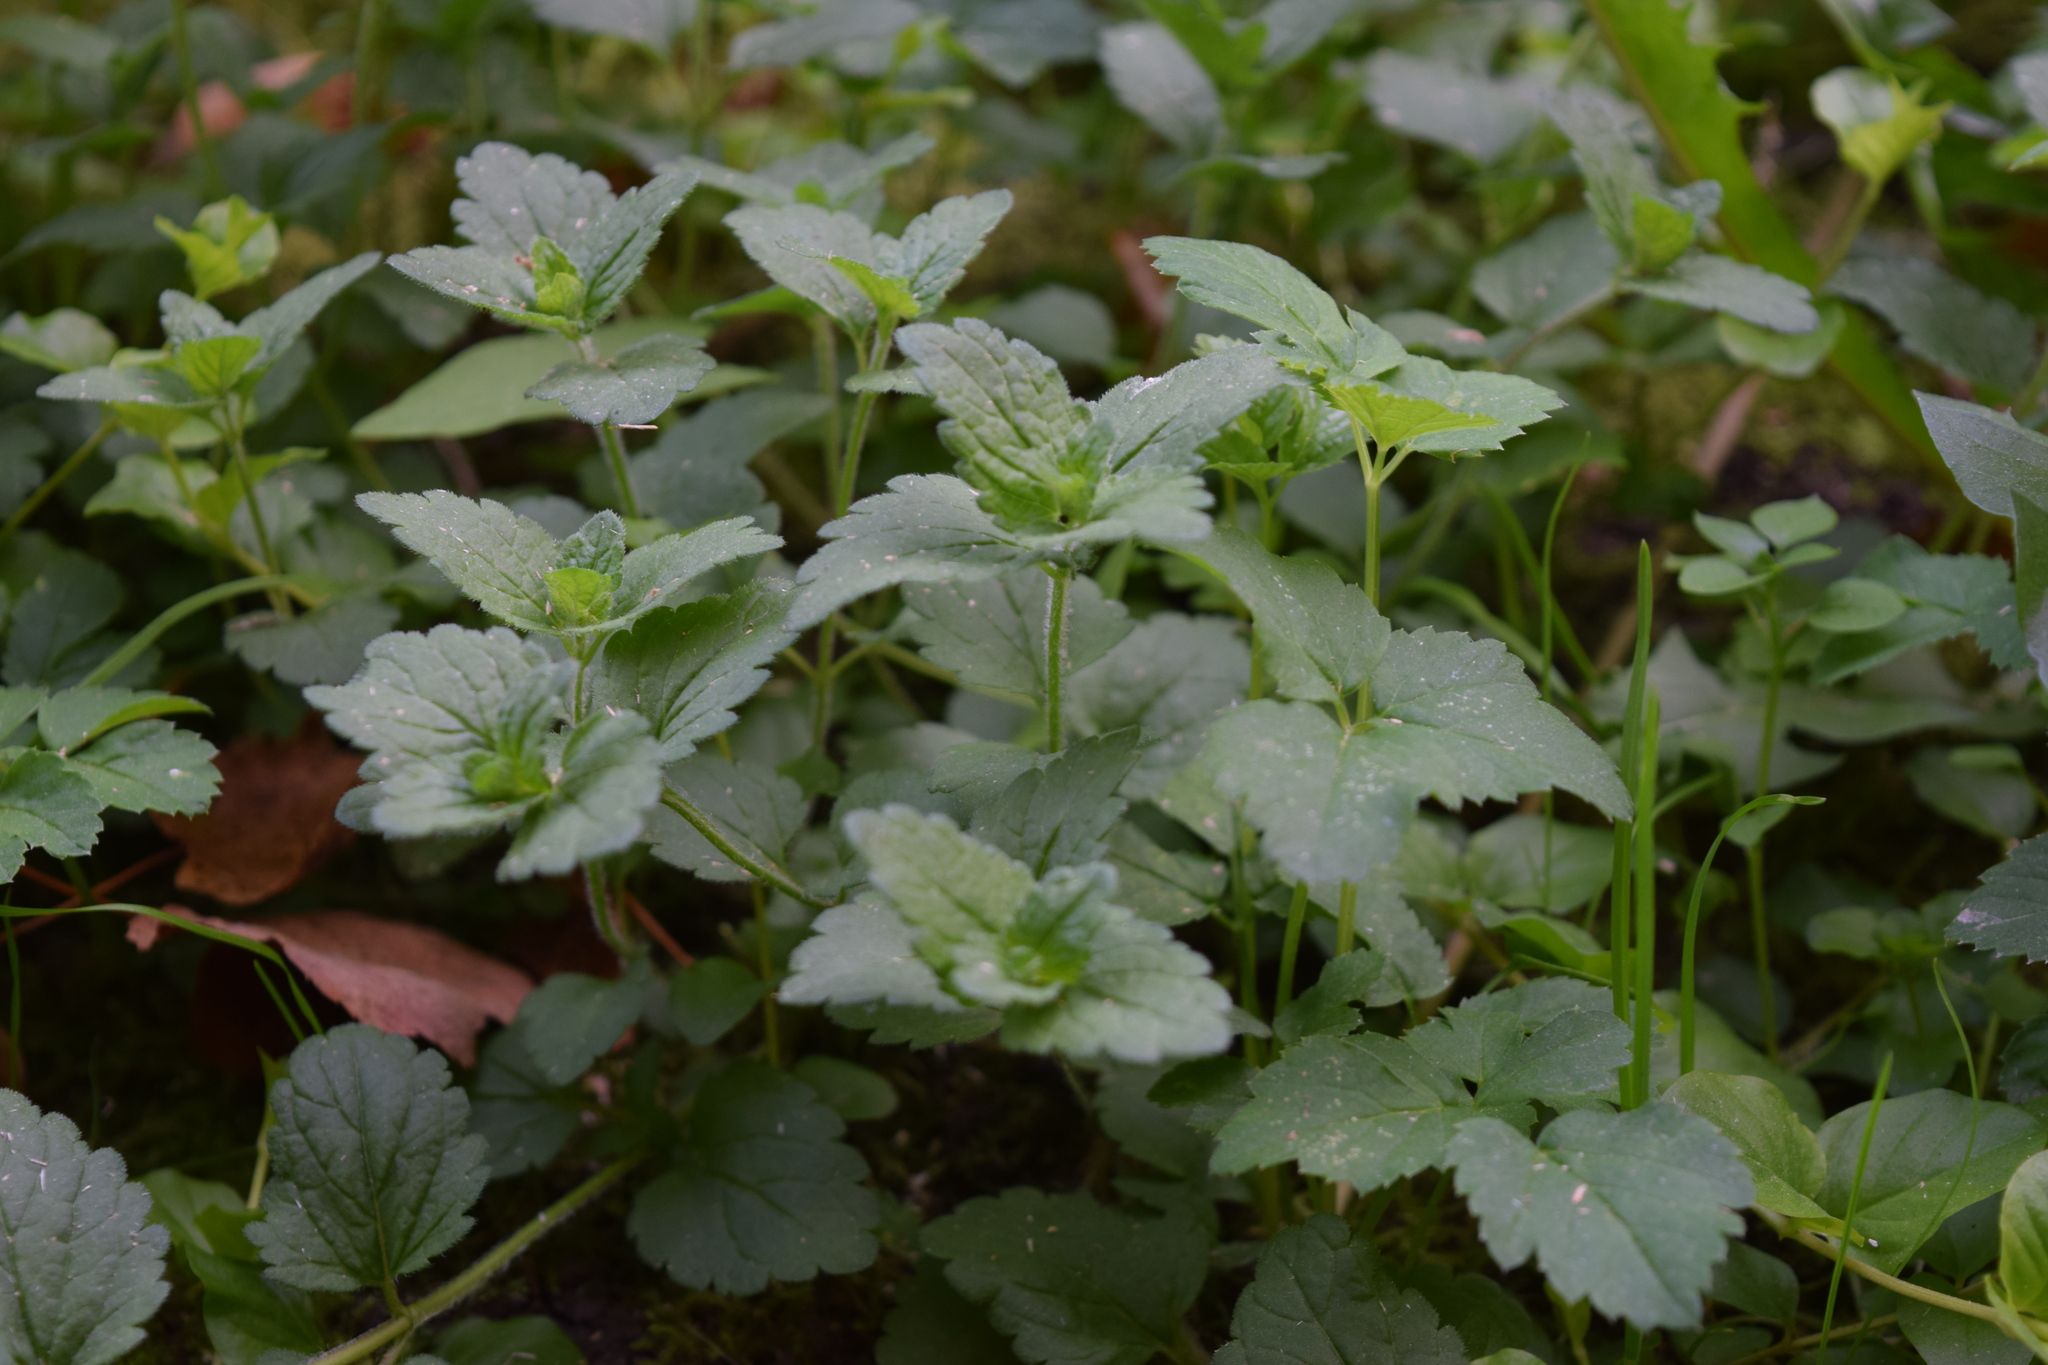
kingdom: Plantae
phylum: Tracheophyta
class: Magnoliopsida
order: Lamiales
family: Plantaginaceae
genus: Veronica
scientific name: Veronica chamaedrys
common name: Germander speedwell
